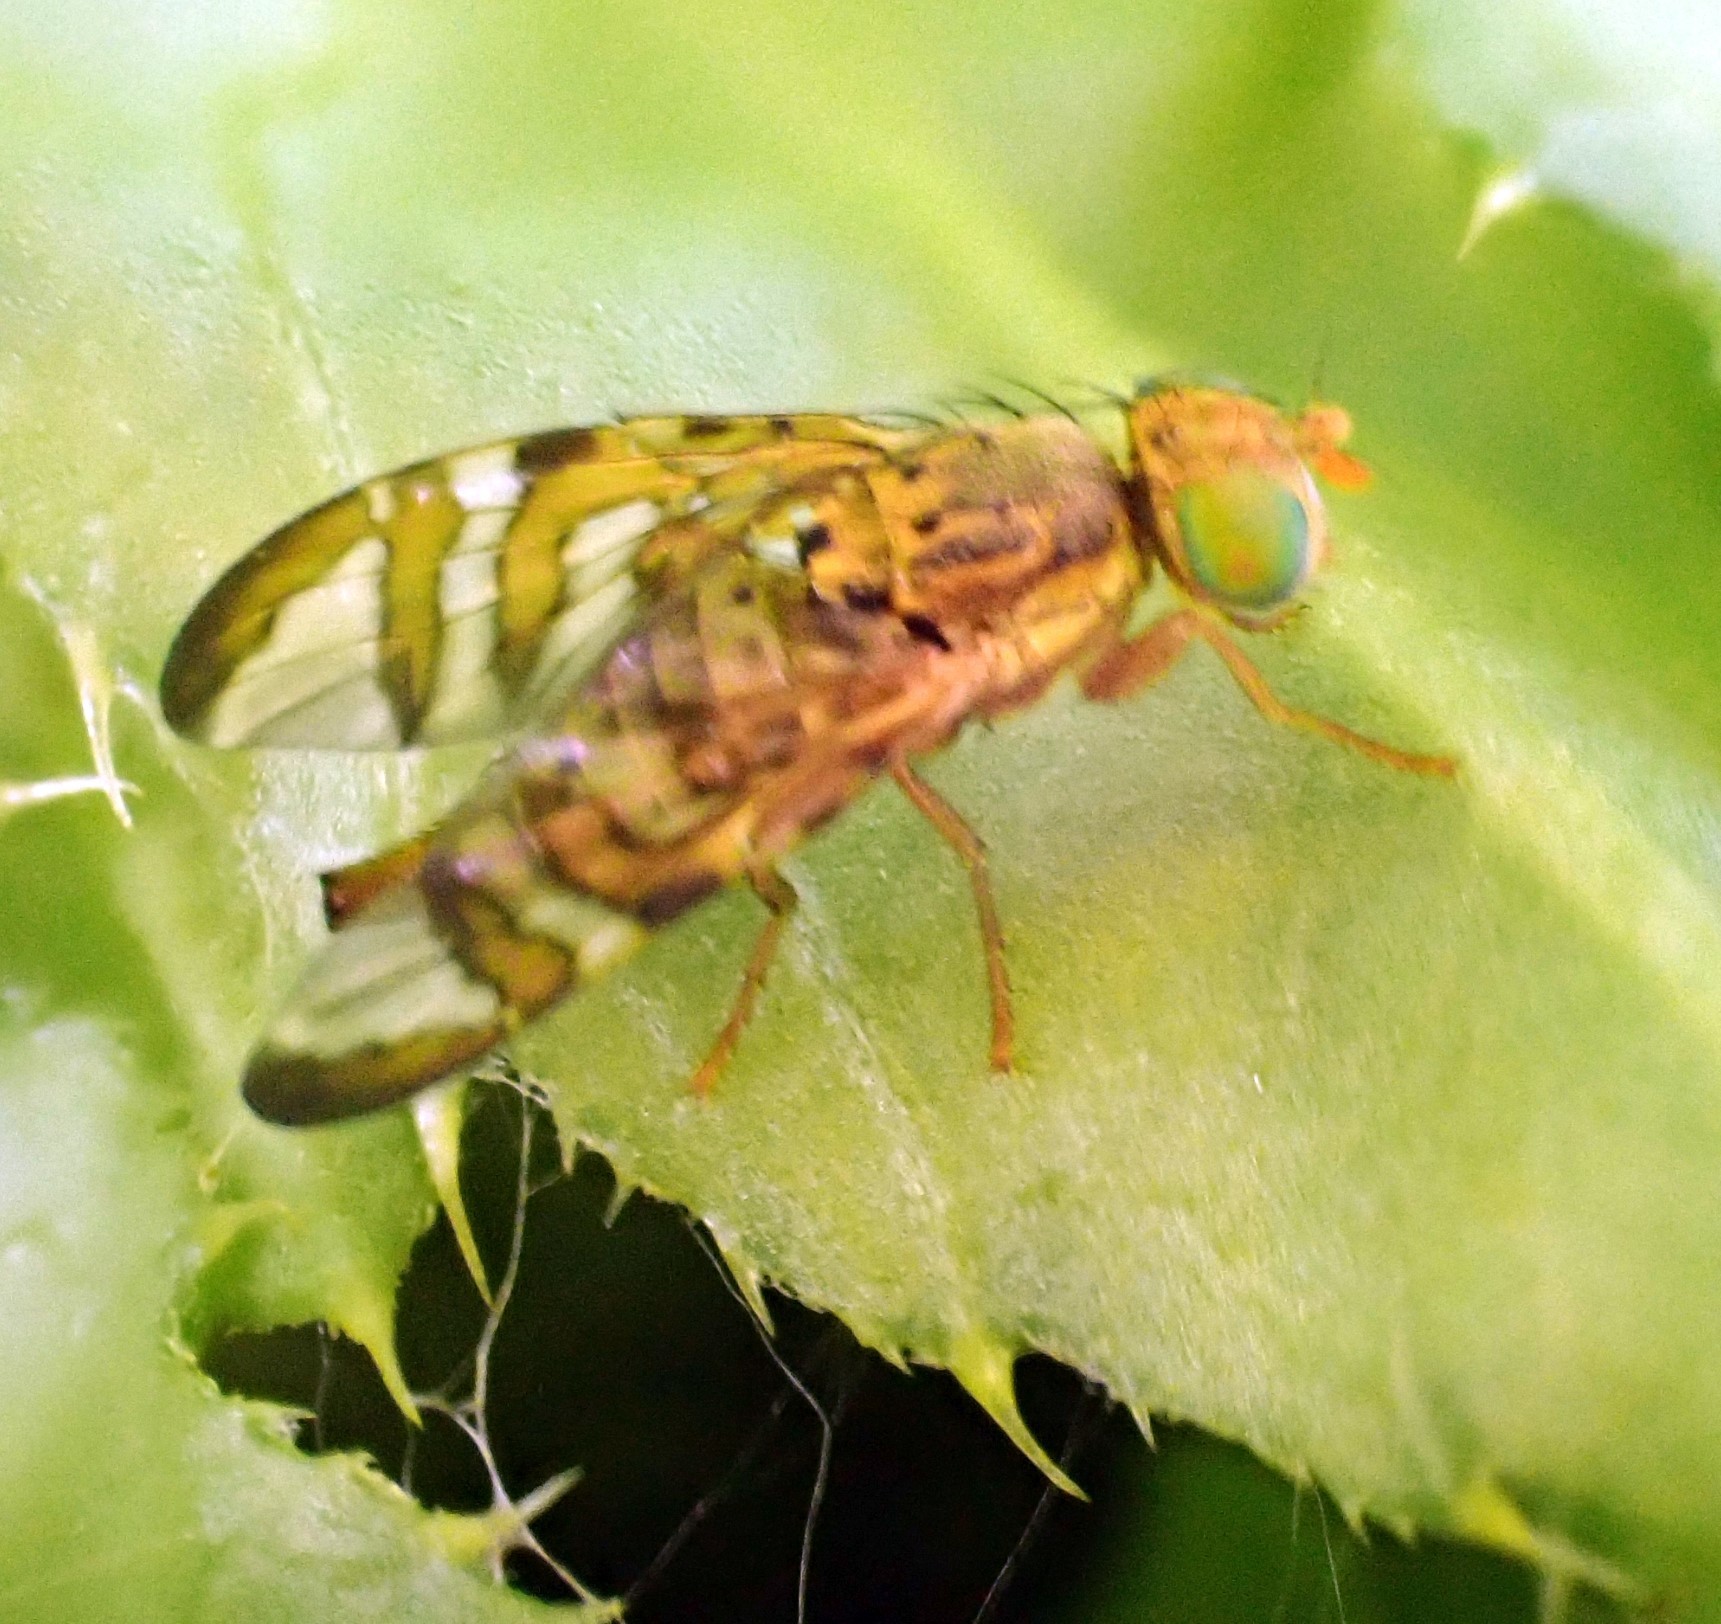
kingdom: Animalia
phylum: Arthropoda
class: Insecta
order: Diptera
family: Tephritidae
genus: Chaetostomella
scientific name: Chaetostomella cylindrica
